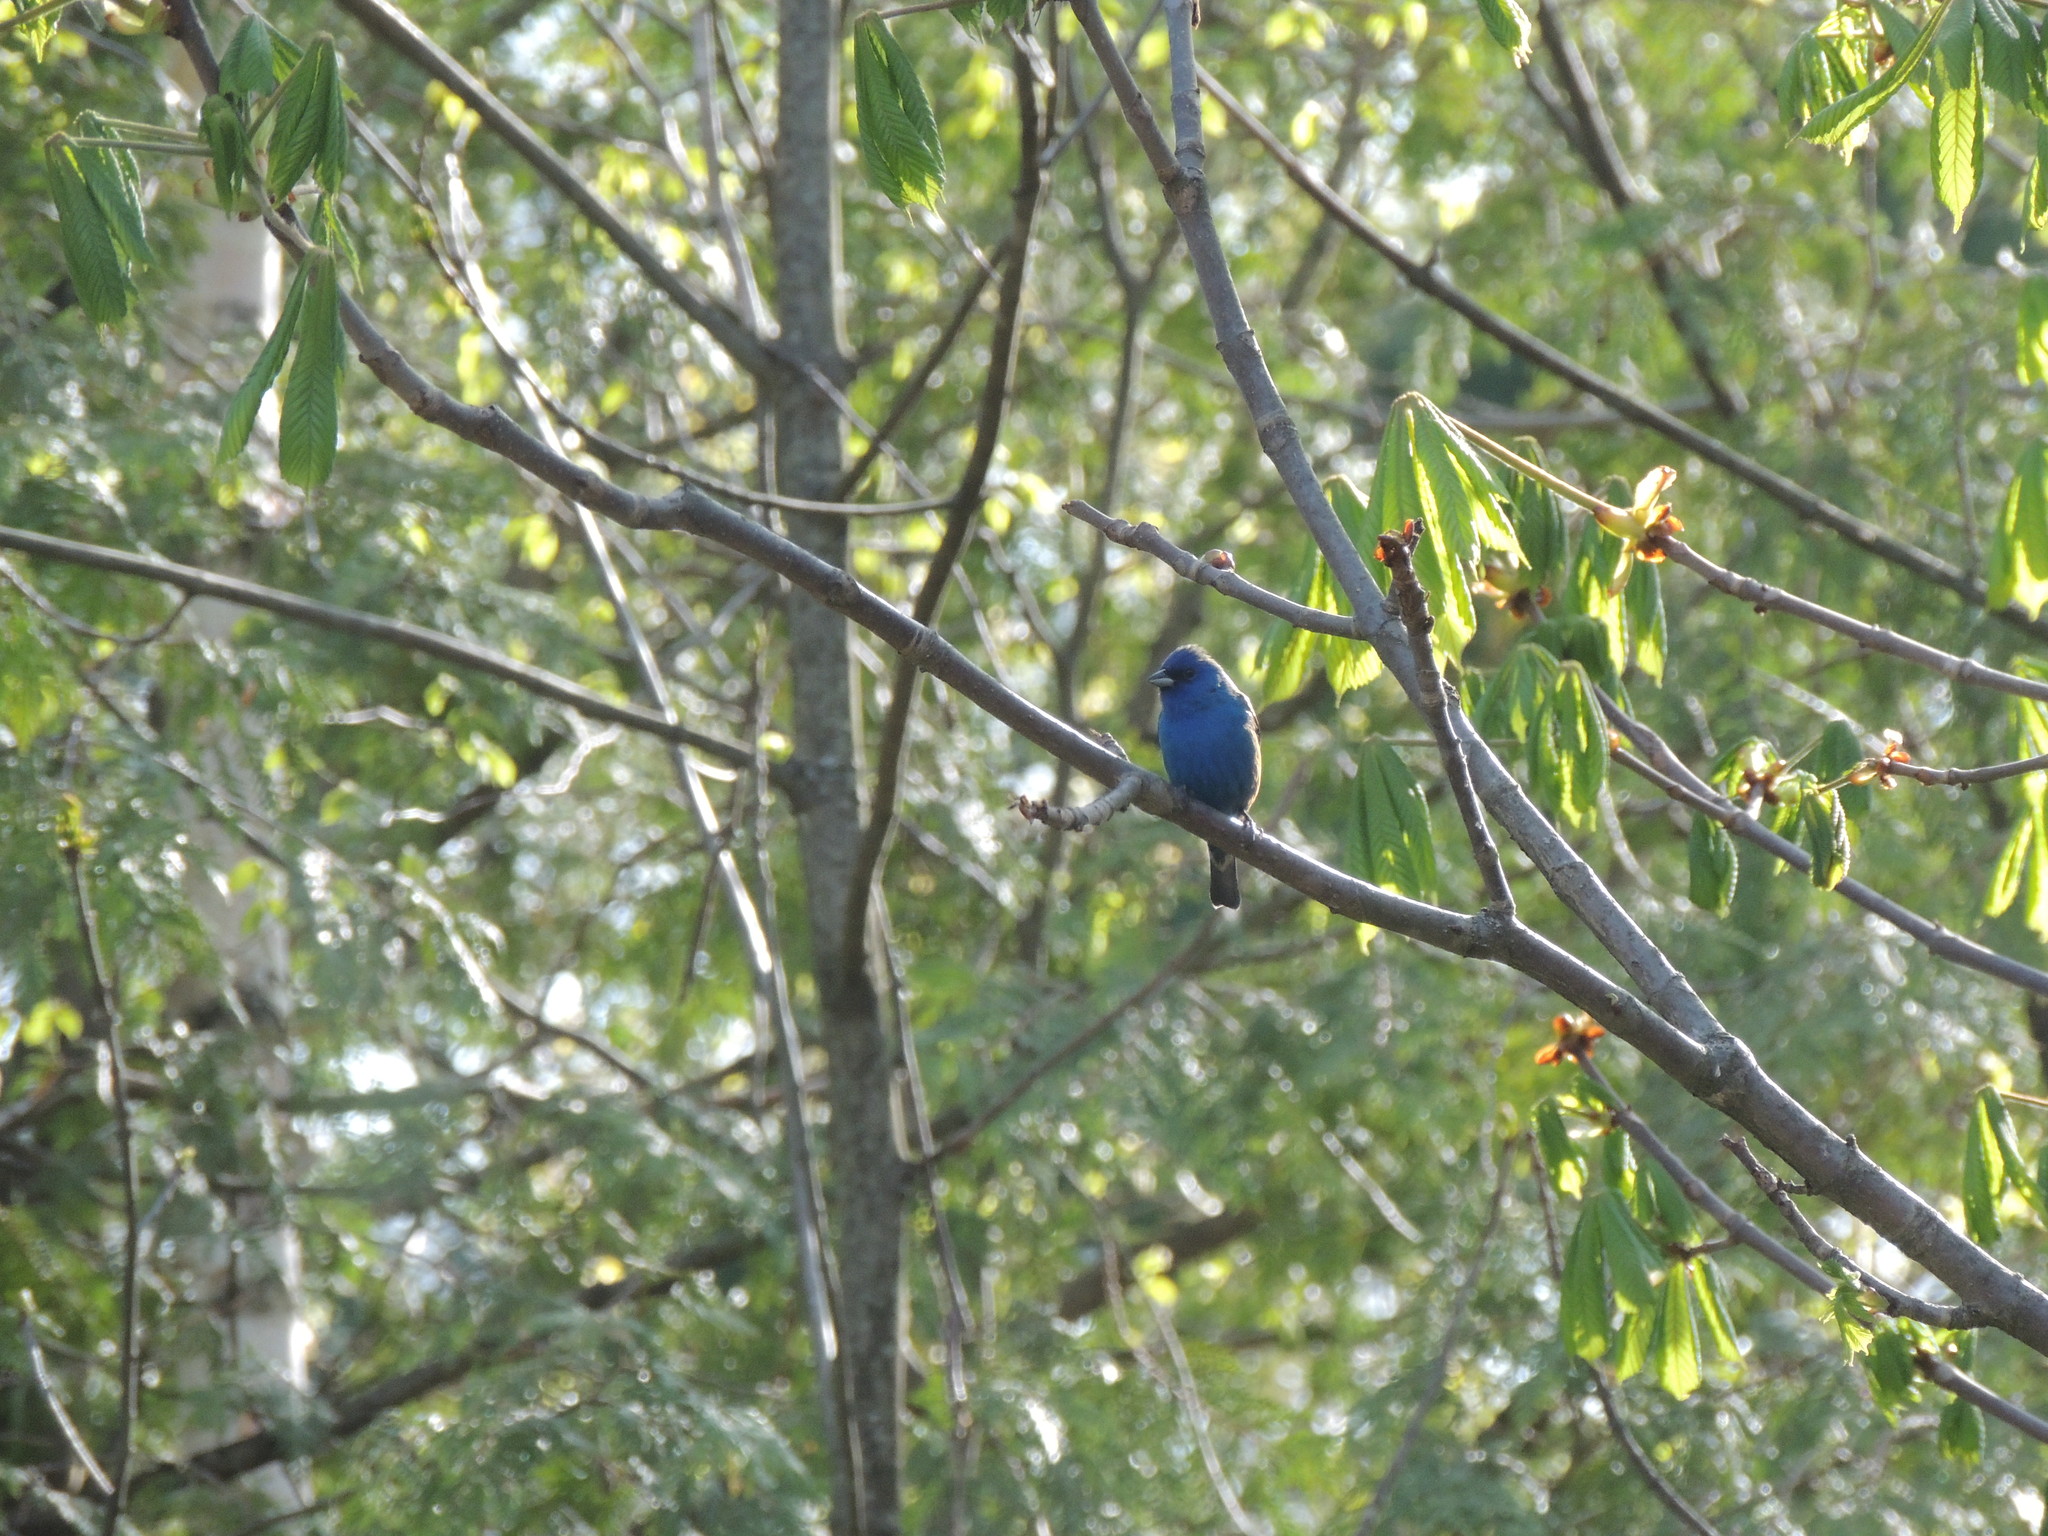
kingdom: Animalia
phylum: Chordata
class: Aves
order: Passeriformes
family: Cardinalidae
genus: Passerina
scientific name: Passerina cyanea
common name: Indigo bunting
